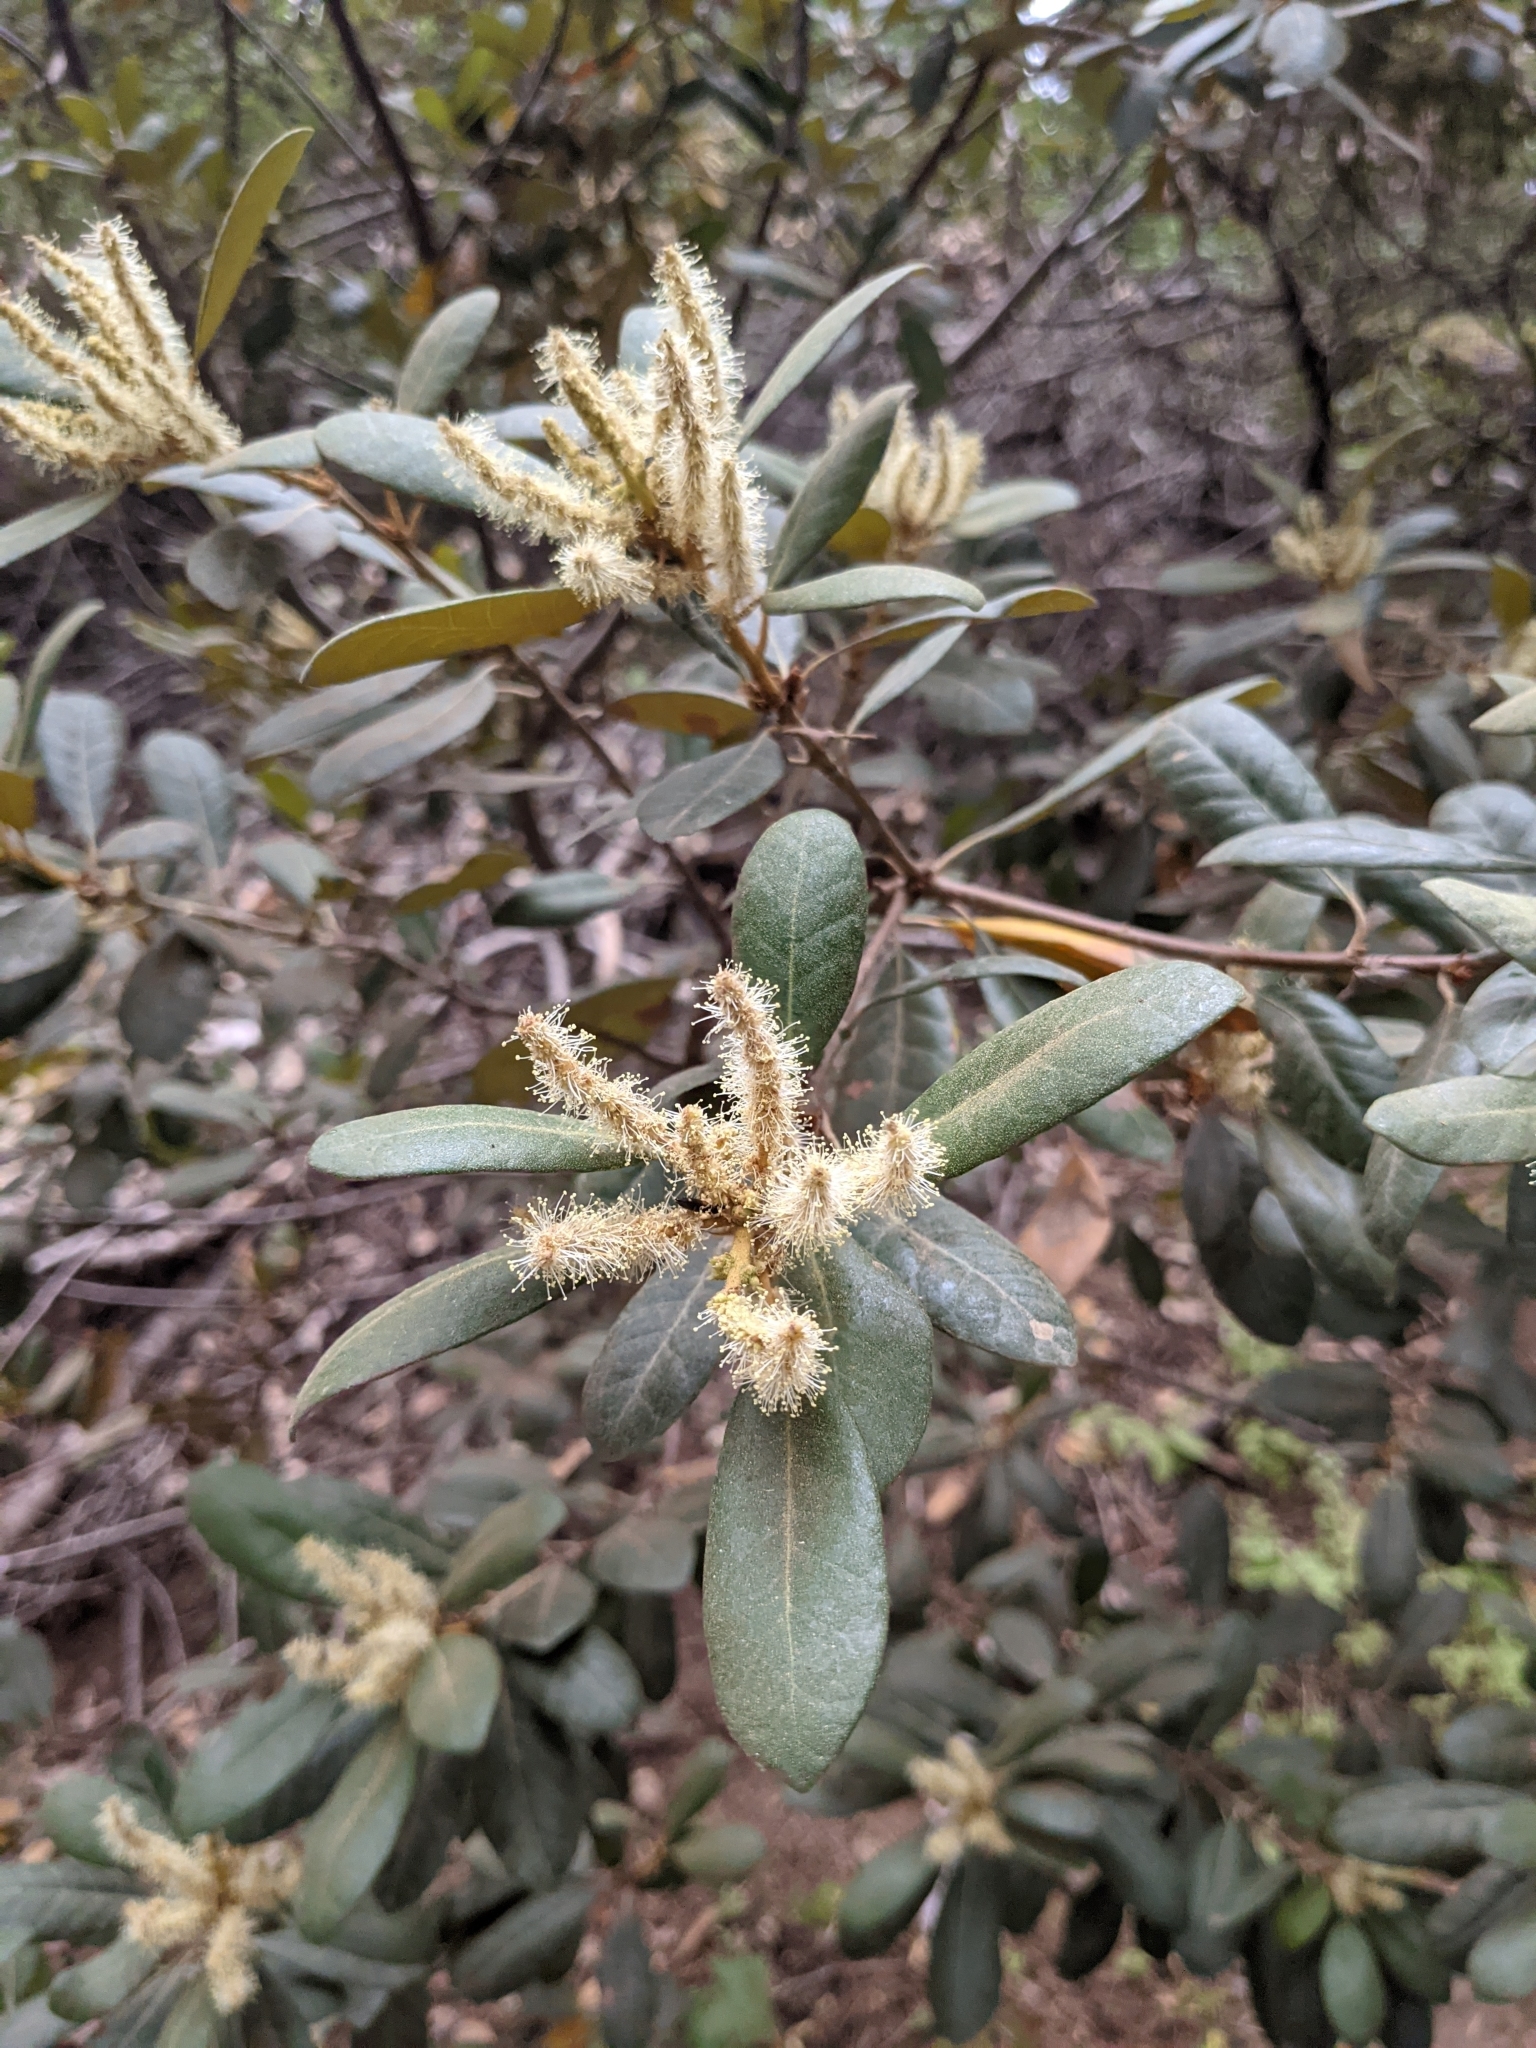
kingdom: Plantae
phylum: Tracheophyta
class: Magnoliopsida
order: Fagales
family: Fagaceae
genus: Chrysolepis
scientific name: Chrysolepis sempervirens
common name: Bush chinquapin
